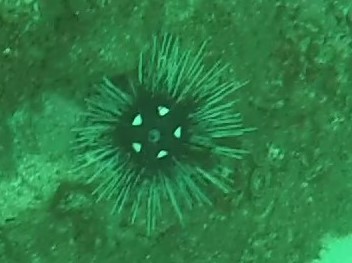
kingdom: Animalia
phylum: Echinodermata
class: Echinoidea
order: Diadematoida
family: Diadematidae
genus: Astropyga
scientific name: Astropyga pulvinata
